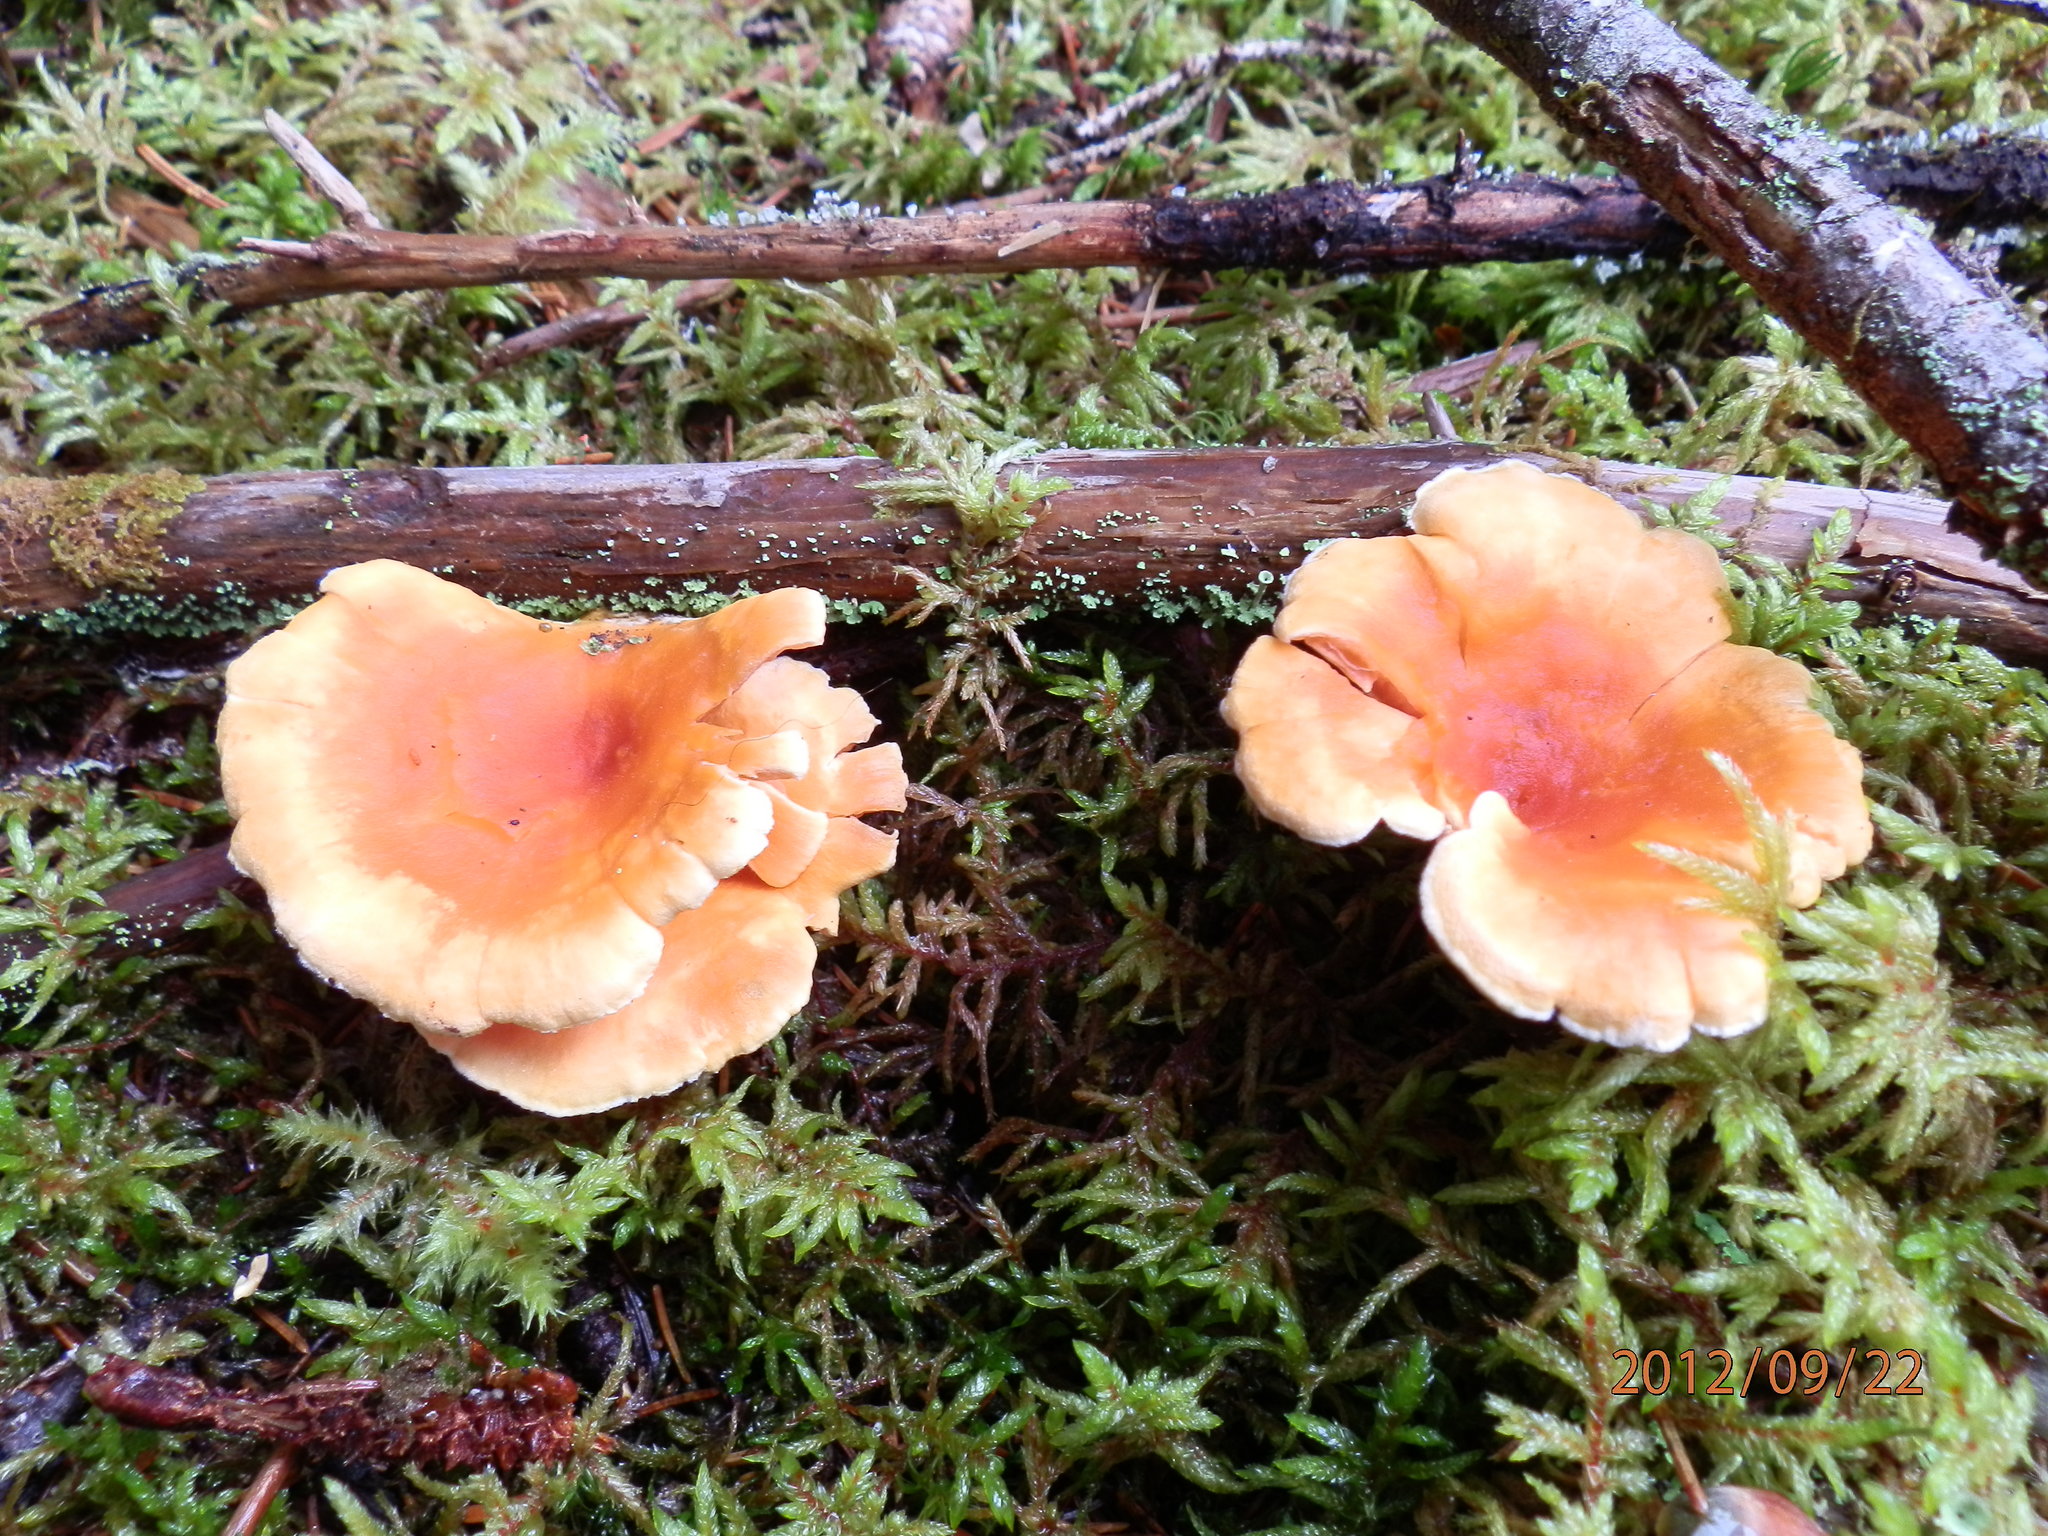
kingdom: Fungi
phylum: Basidiomycota
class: Agaricomycetes
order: Boletales
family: Hygrophoropsidaceae
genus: Hygrophoropsis
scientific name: Hygrophoropsis aurantiaca
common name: False chanterelle
